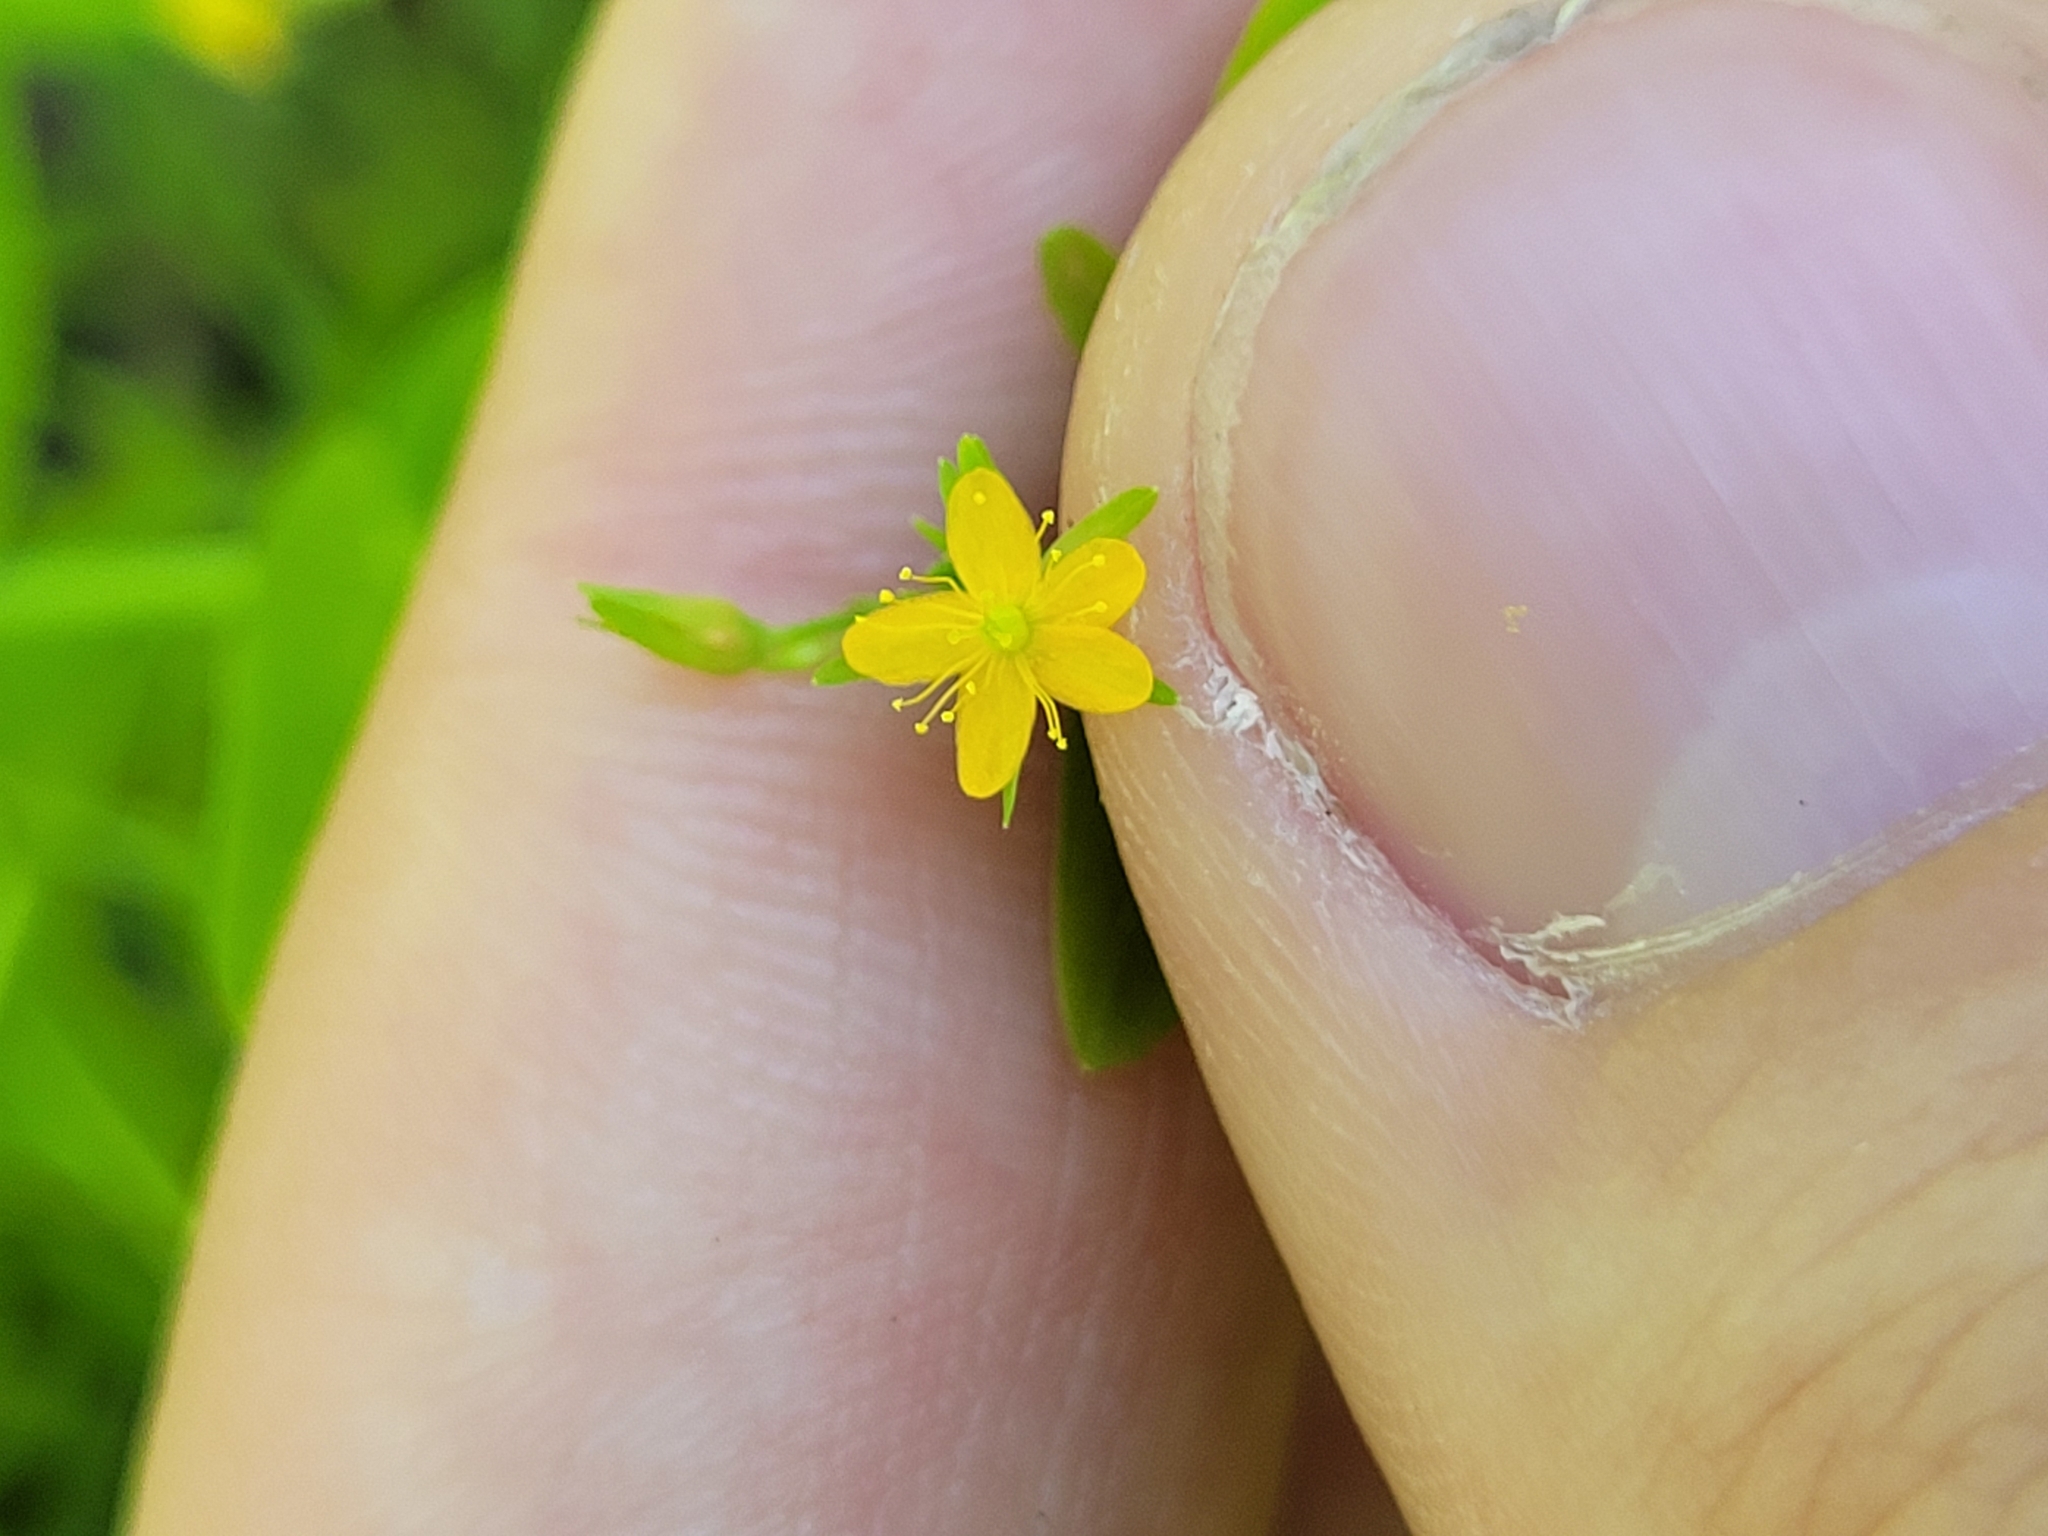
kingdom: Plantae
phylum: Tracheophyta
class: Magnoliopsida
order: Malpighiales
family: Hypericaceae
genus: Hypericum
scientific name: Hypericum mutilum
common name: Dwarf st. john's-wort
